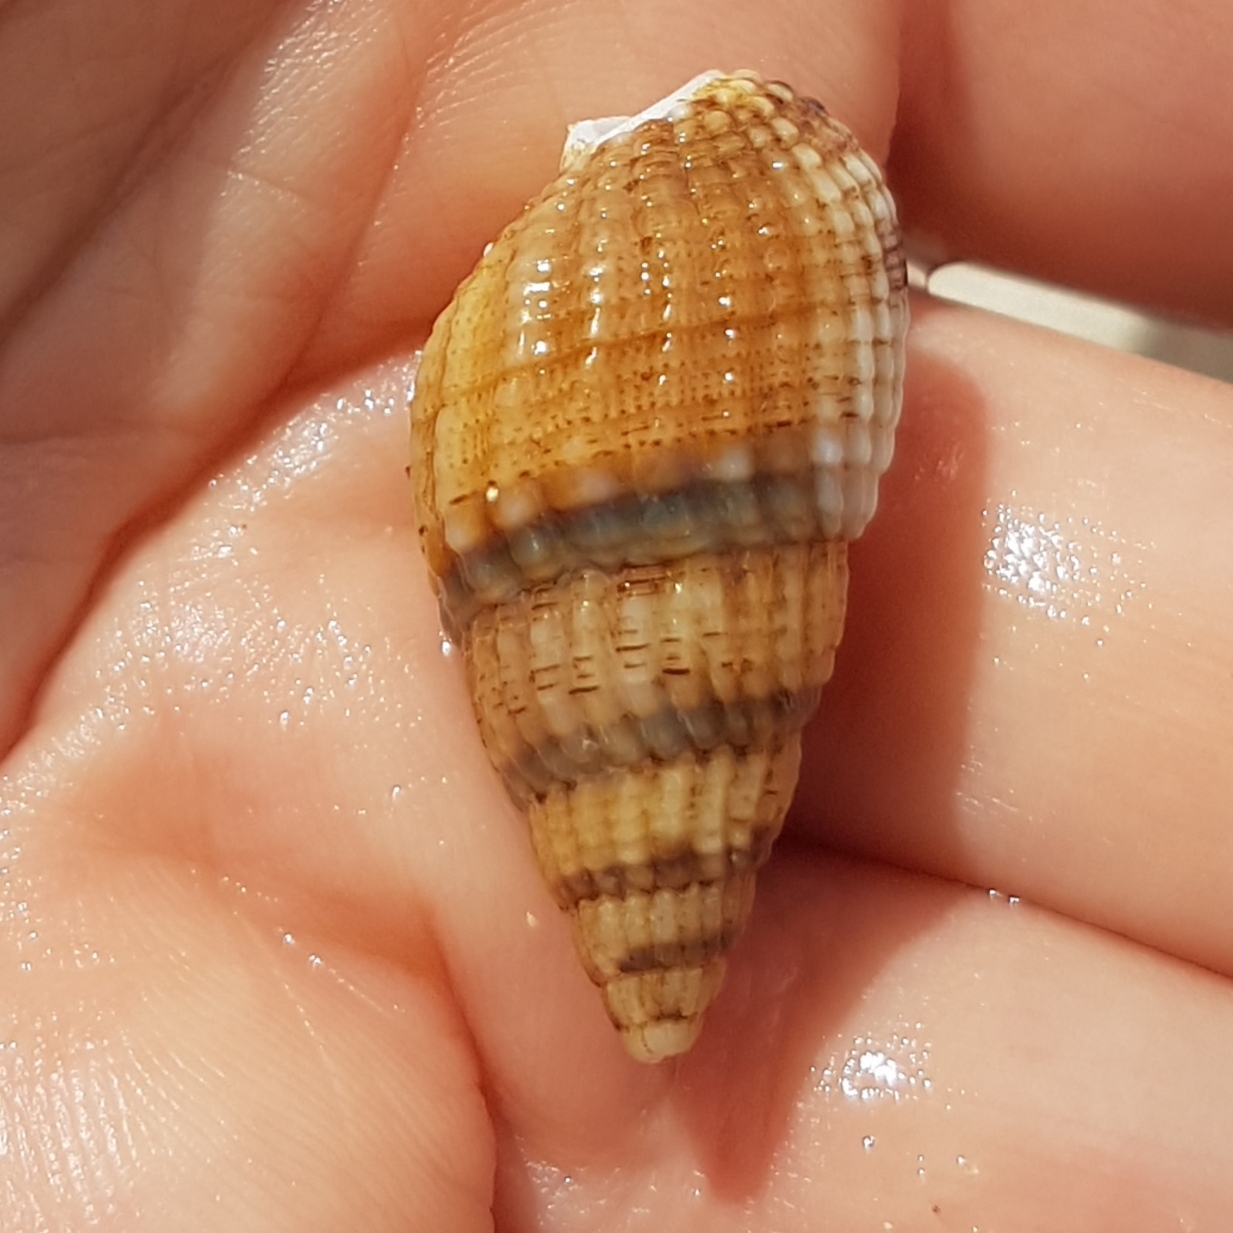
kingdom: Animalia
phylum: Mollusca
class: Gastropoda
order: Neogastropoda
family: Nassariidae
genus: Tritia
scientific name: Tritia reticulata
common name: Netted dog whelk
